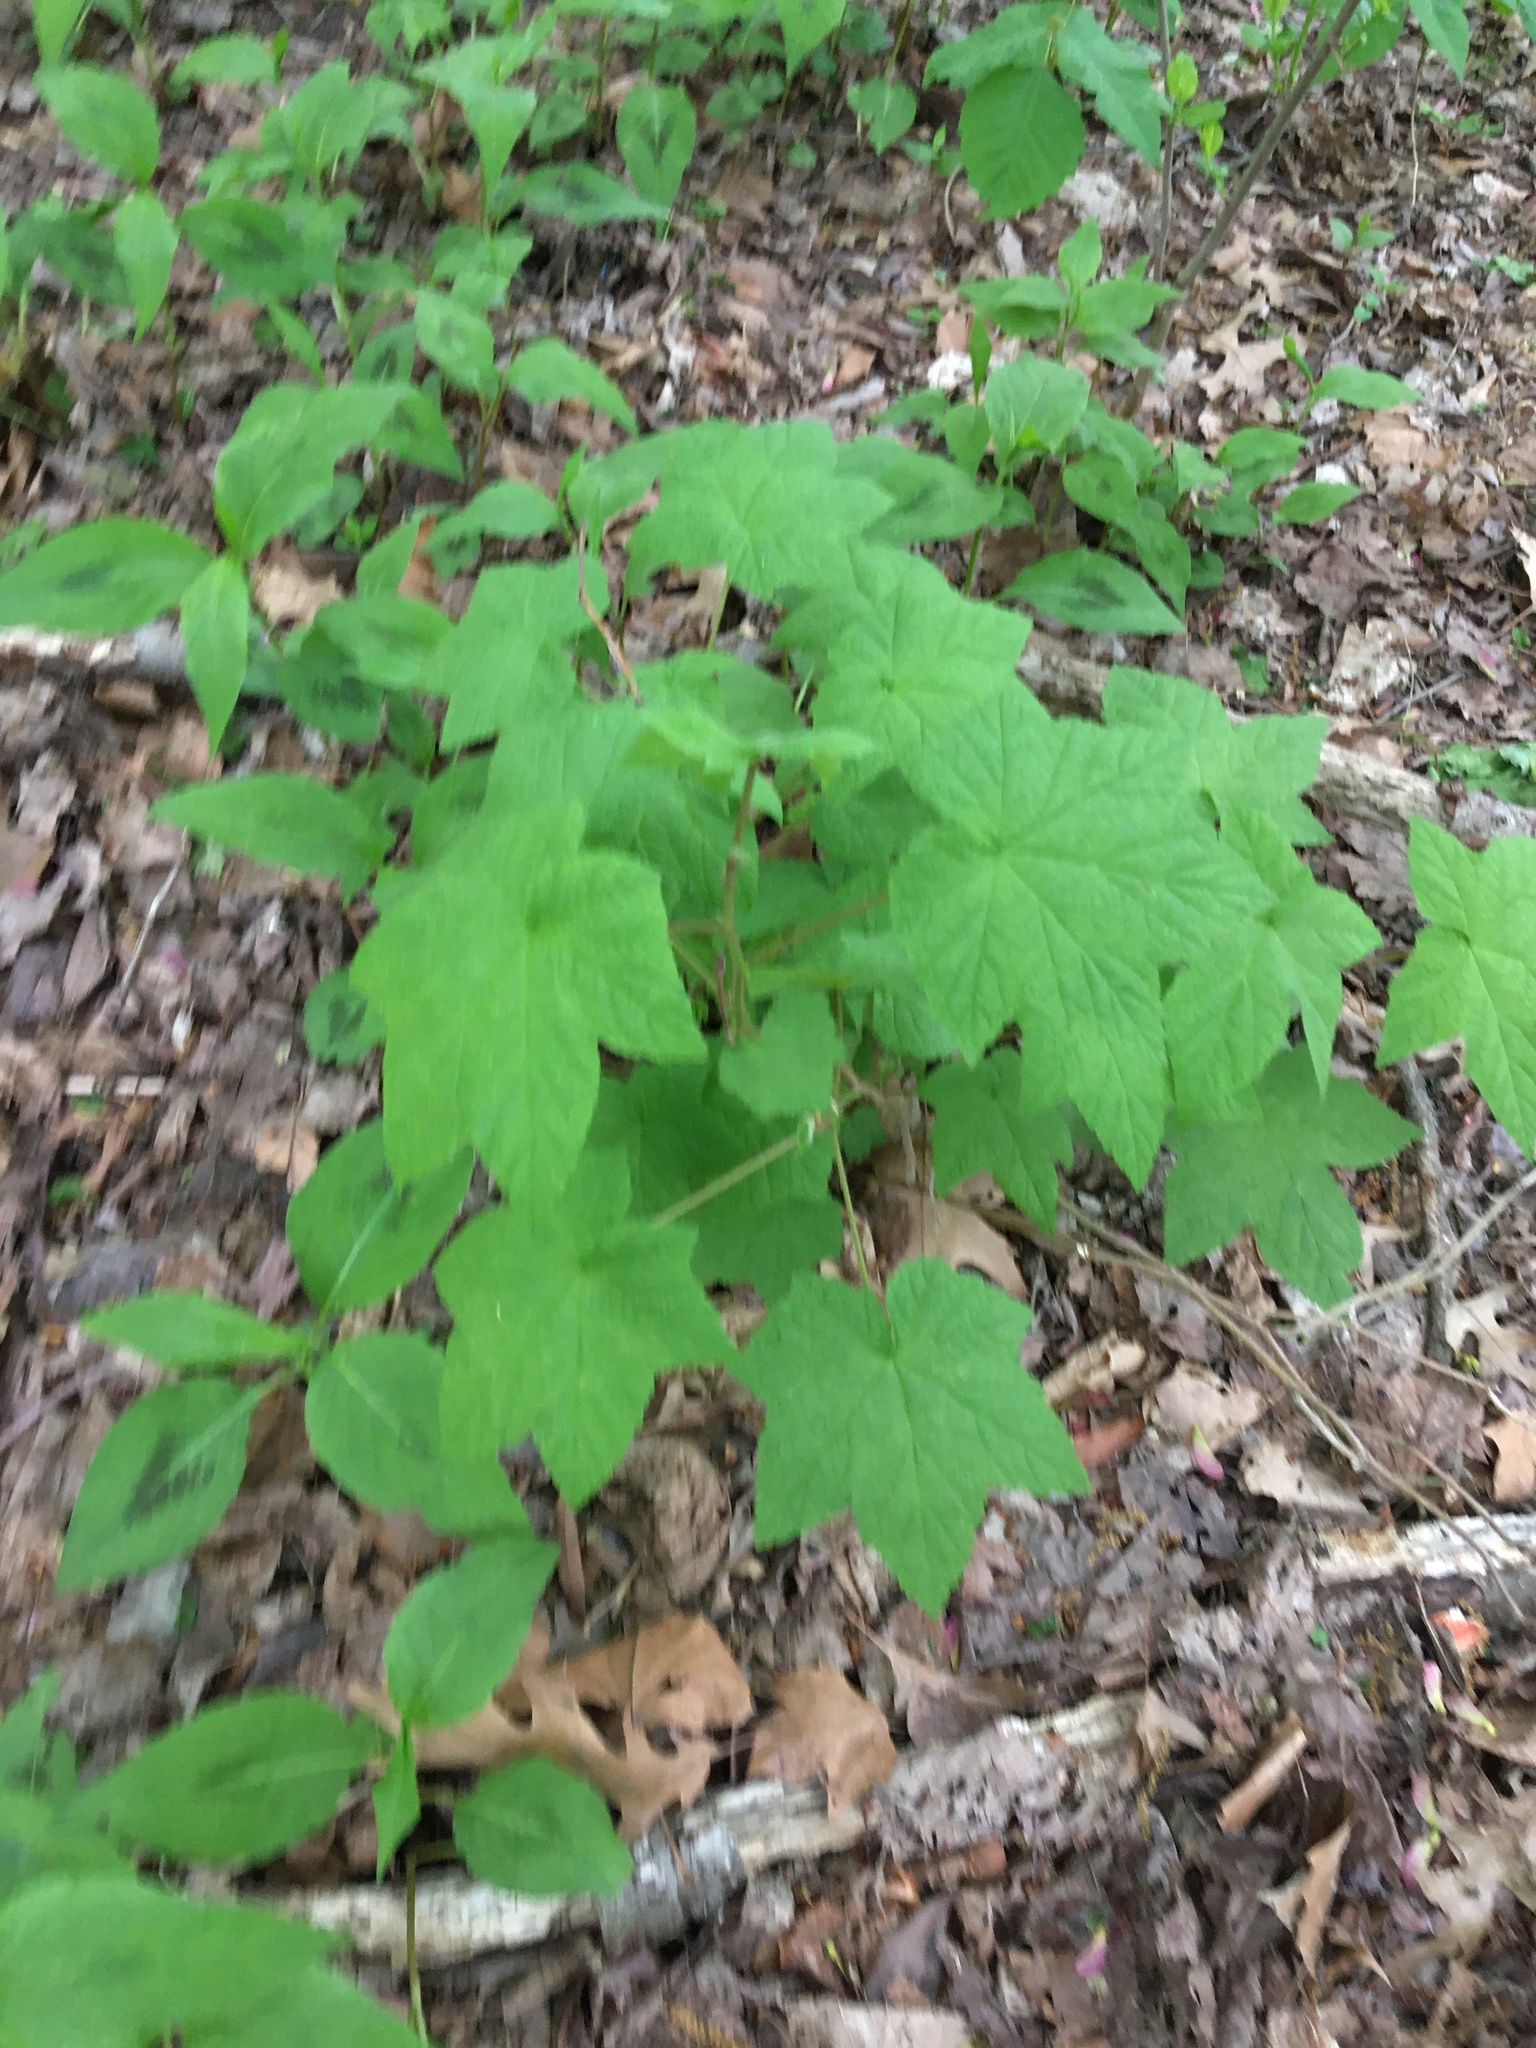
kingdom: Plantae
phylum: Tracheophyta
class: Magnoliopsida
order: Rosales
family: Rosaceae
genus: Rubus
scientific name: Rubus odoratus
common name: Purple-flowered raspberry
